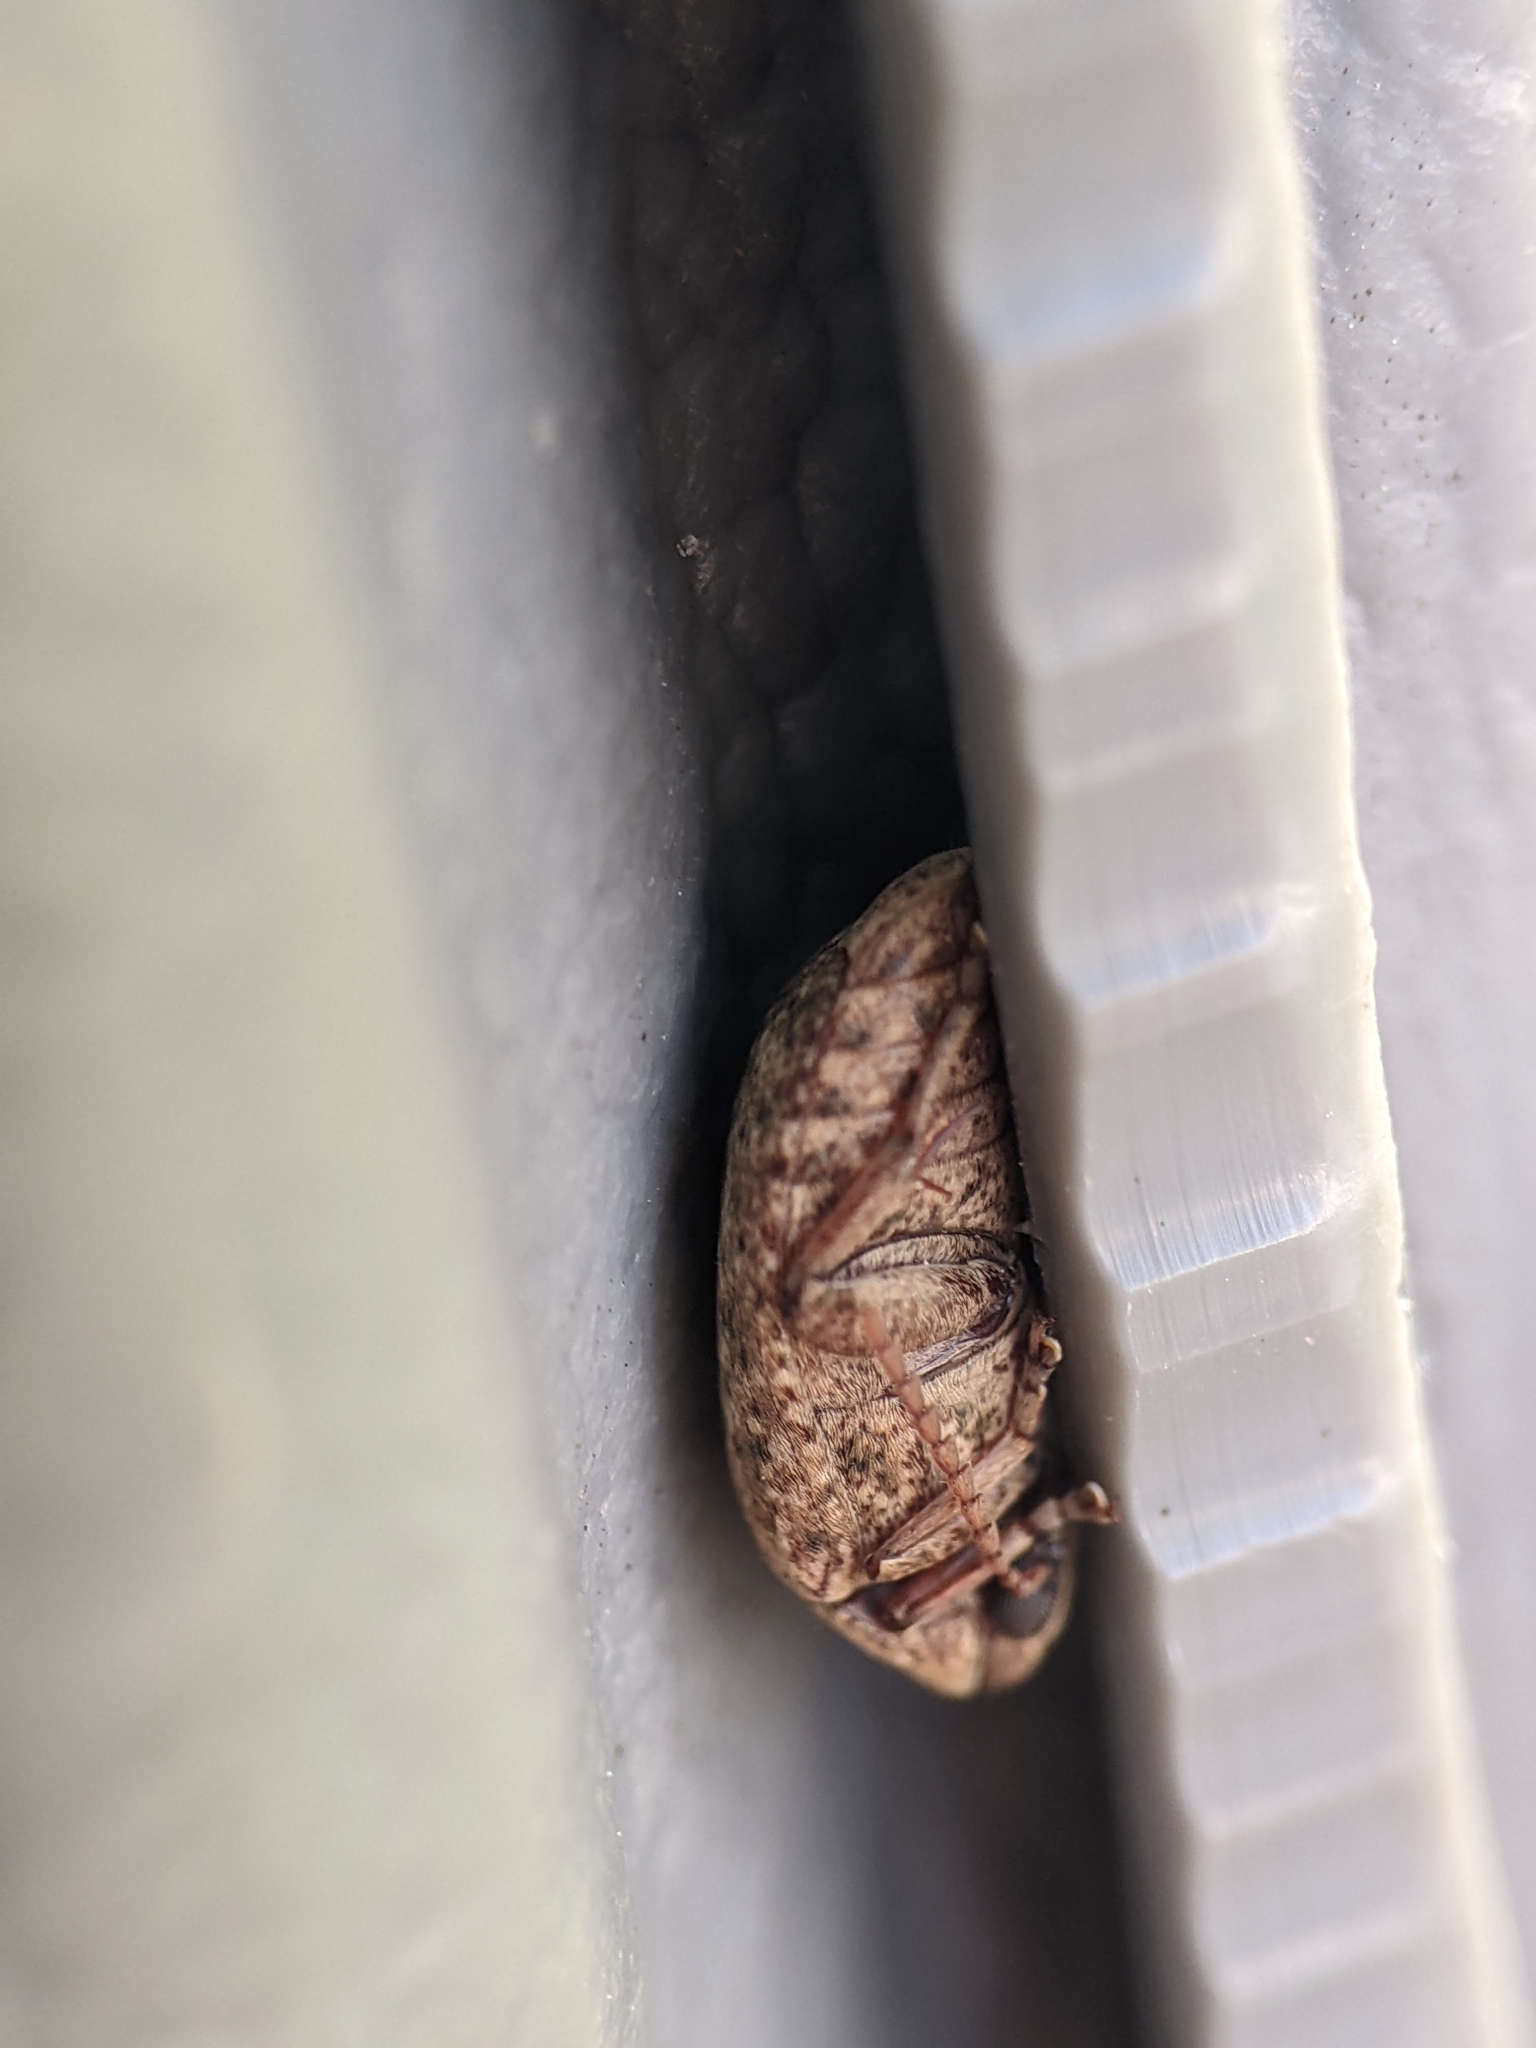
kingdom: Animalia
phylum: Arthropoda
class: Insecta
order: Coleoptera
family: Chrysomelidae
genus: Amblycerus
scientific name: Amblycerus robiniae
